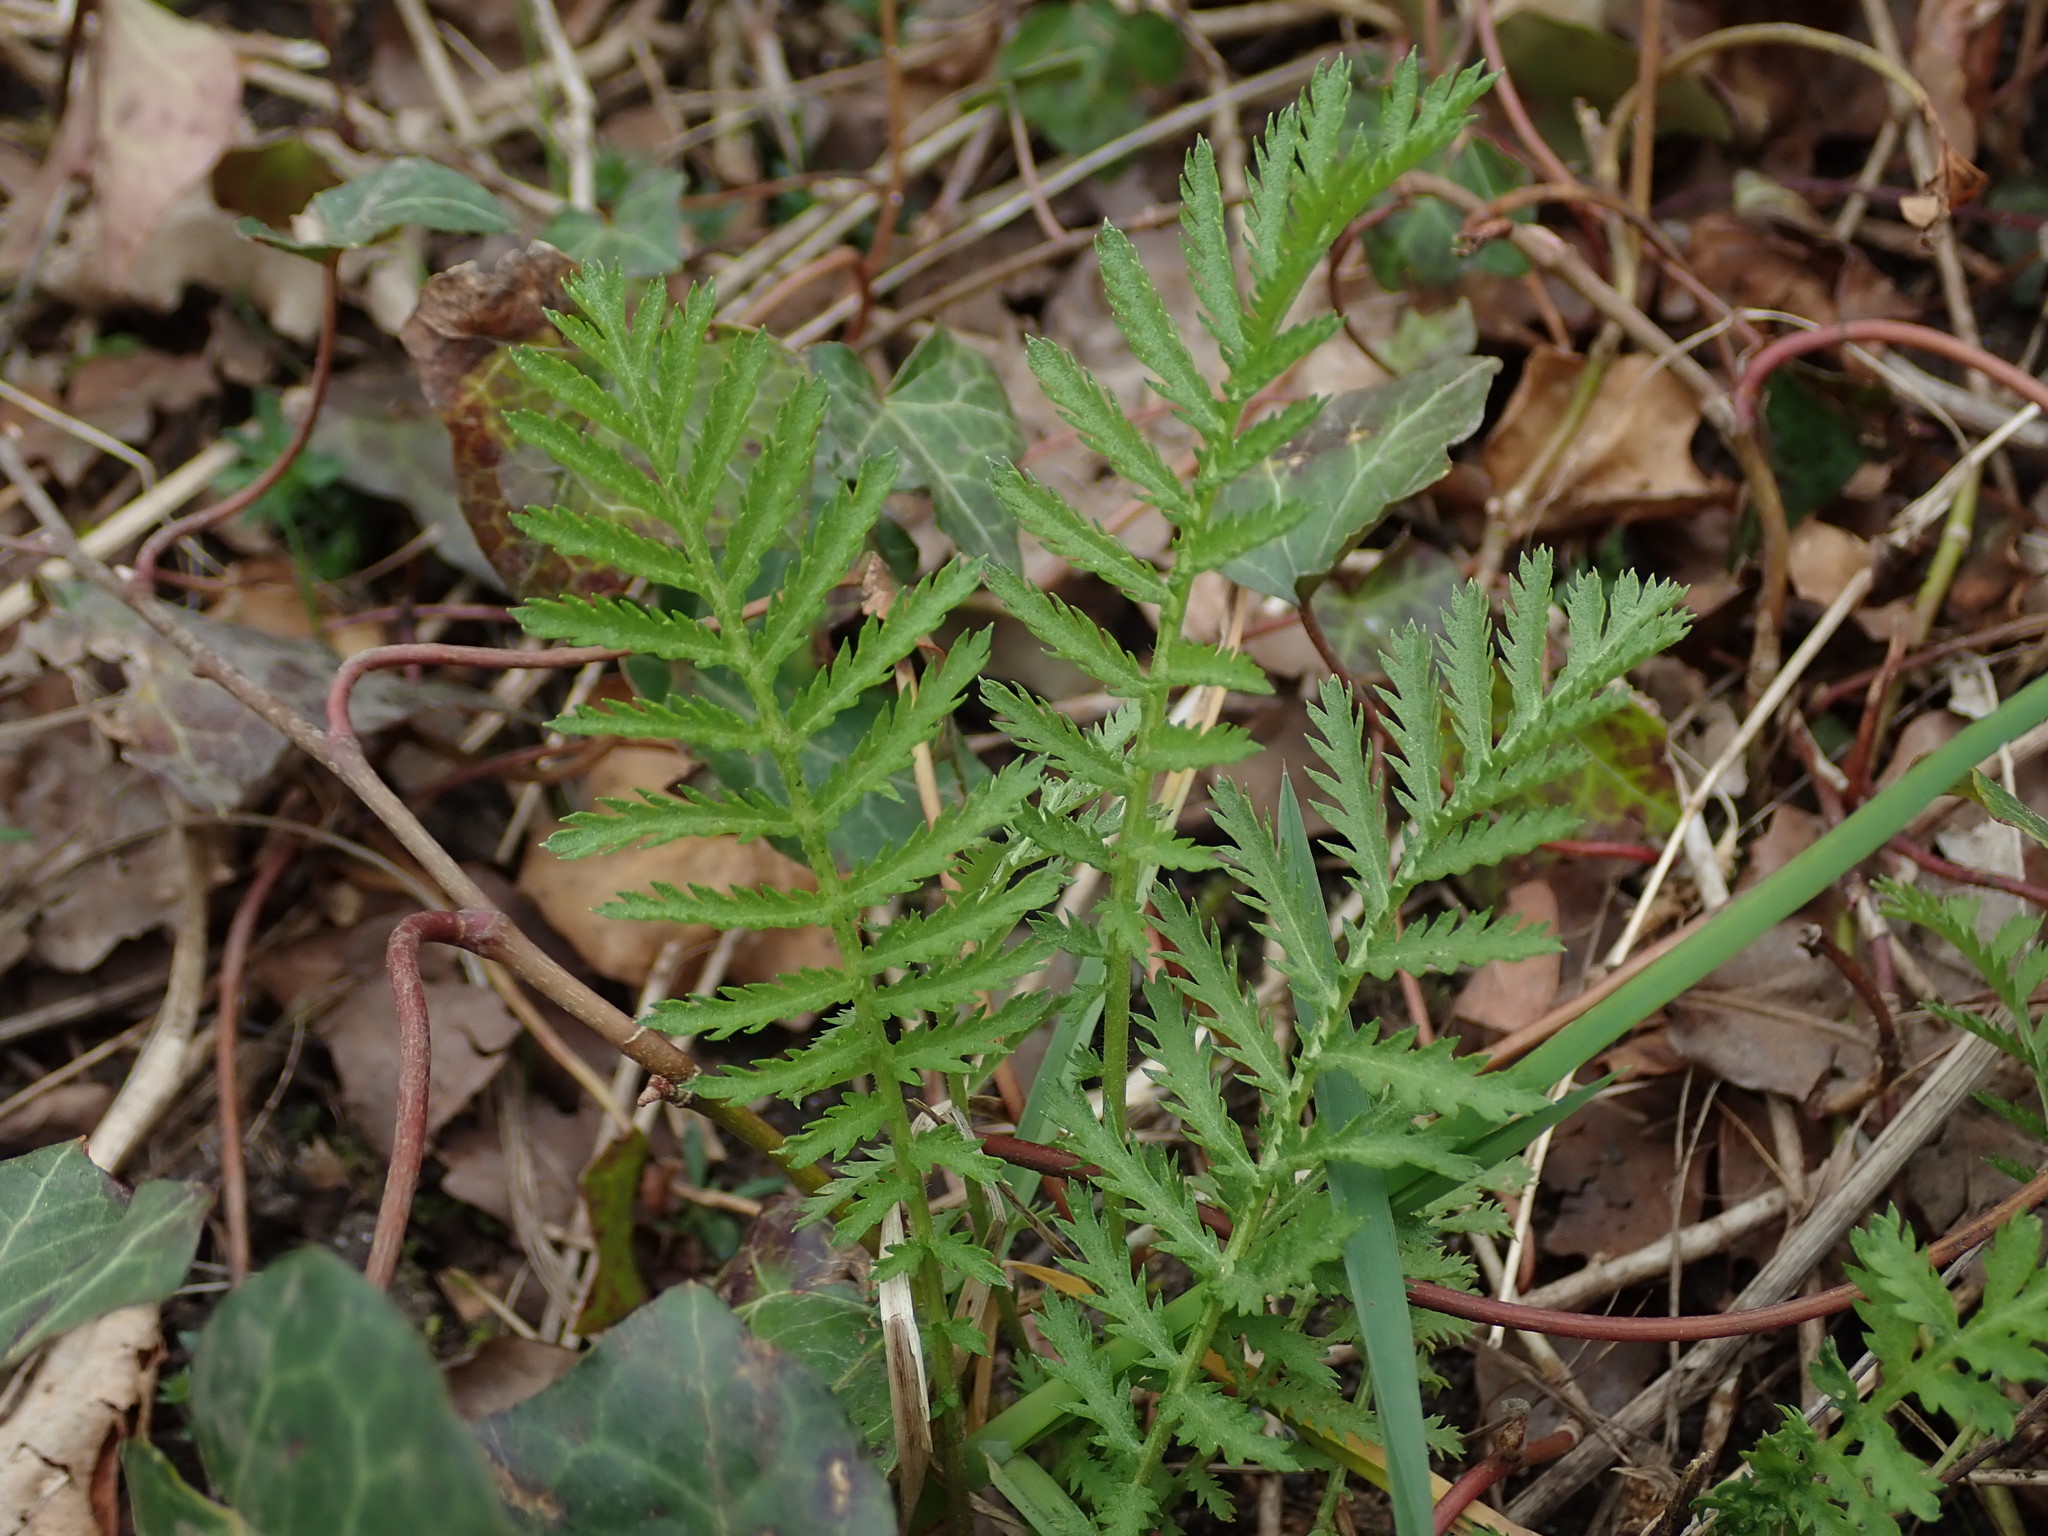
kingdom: Plantae
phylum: Tracheophyta
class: Magnoliopsida
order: Asterales
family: Asteraceae
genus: Tanacetum
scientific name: Tanacetum vulgare
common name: Common tansy
